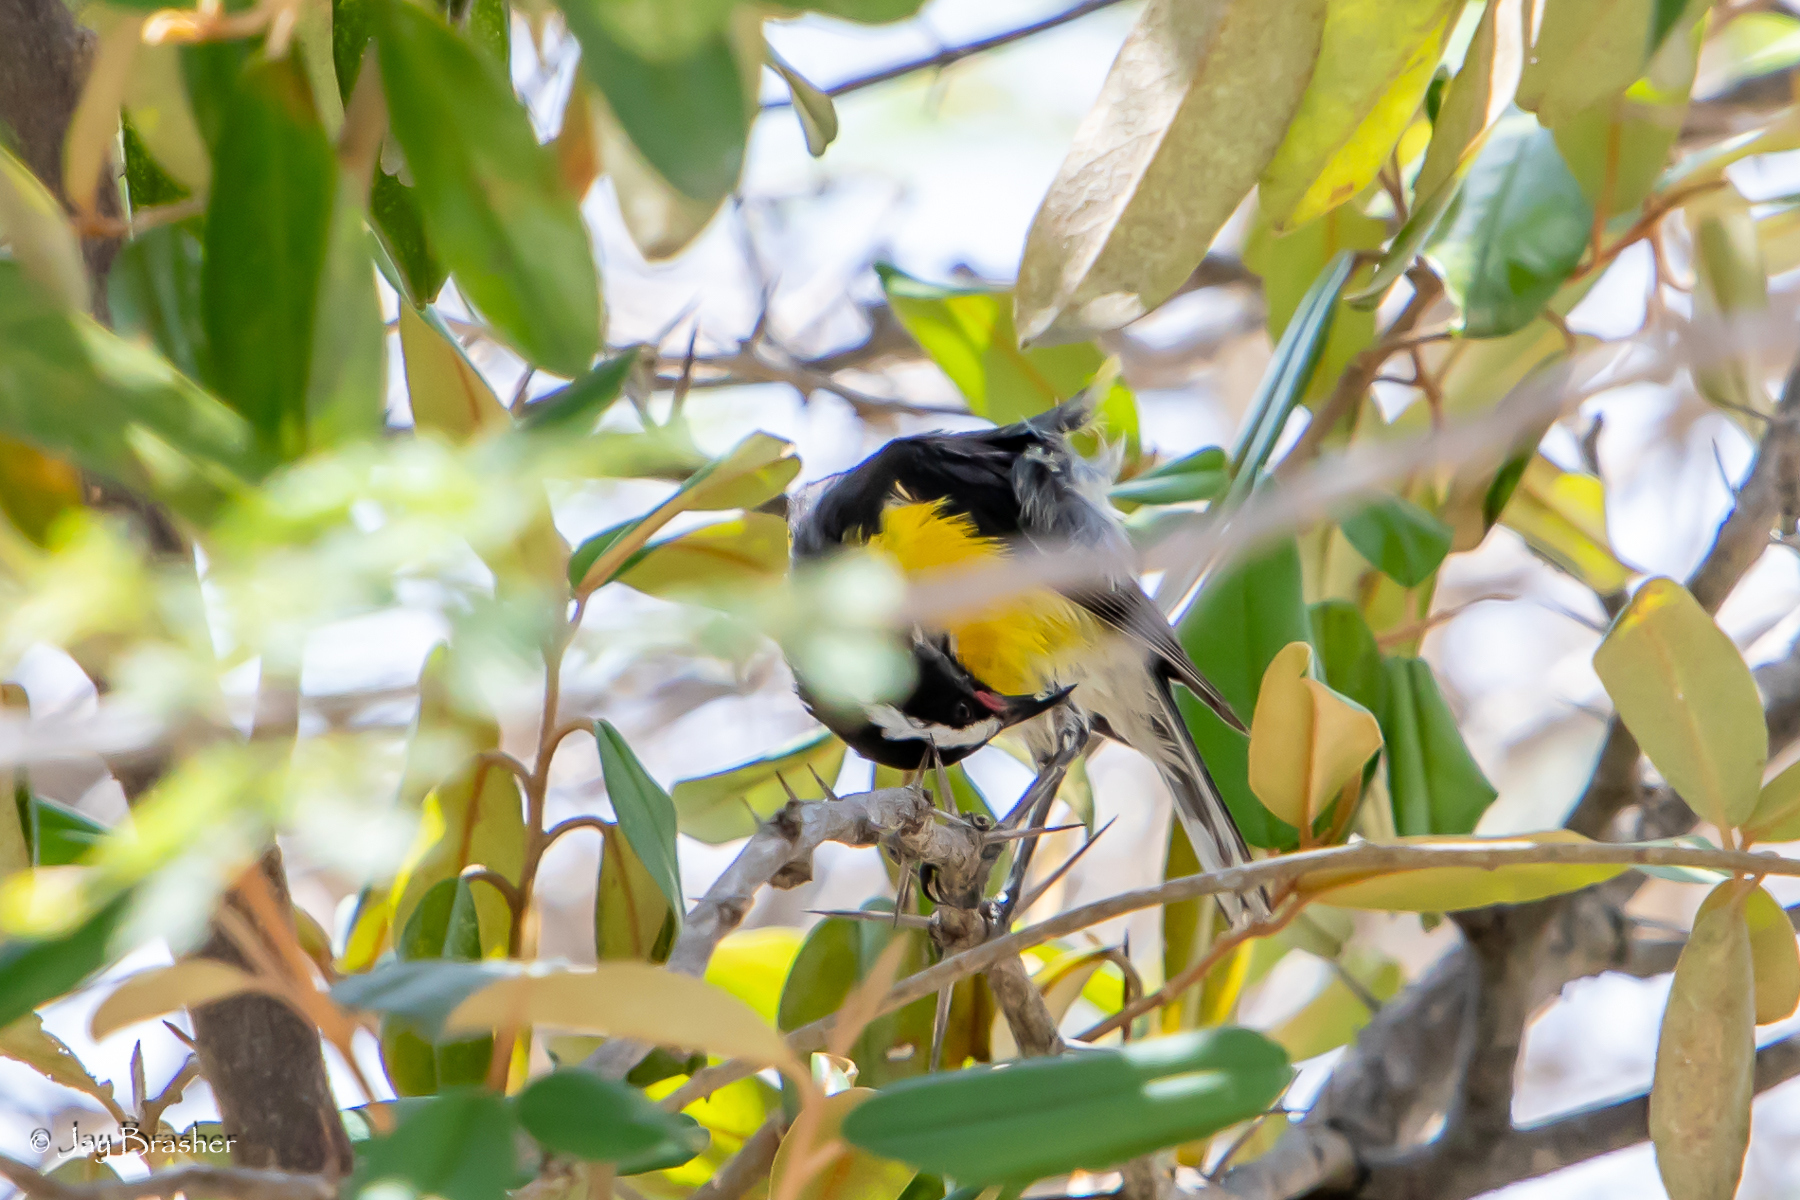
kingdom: Animalia
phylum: Chordata
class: Aves
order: Passeriformes
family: Thraupidae
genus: Coereba
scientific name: Coereba flaveola
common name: Bananaquit
